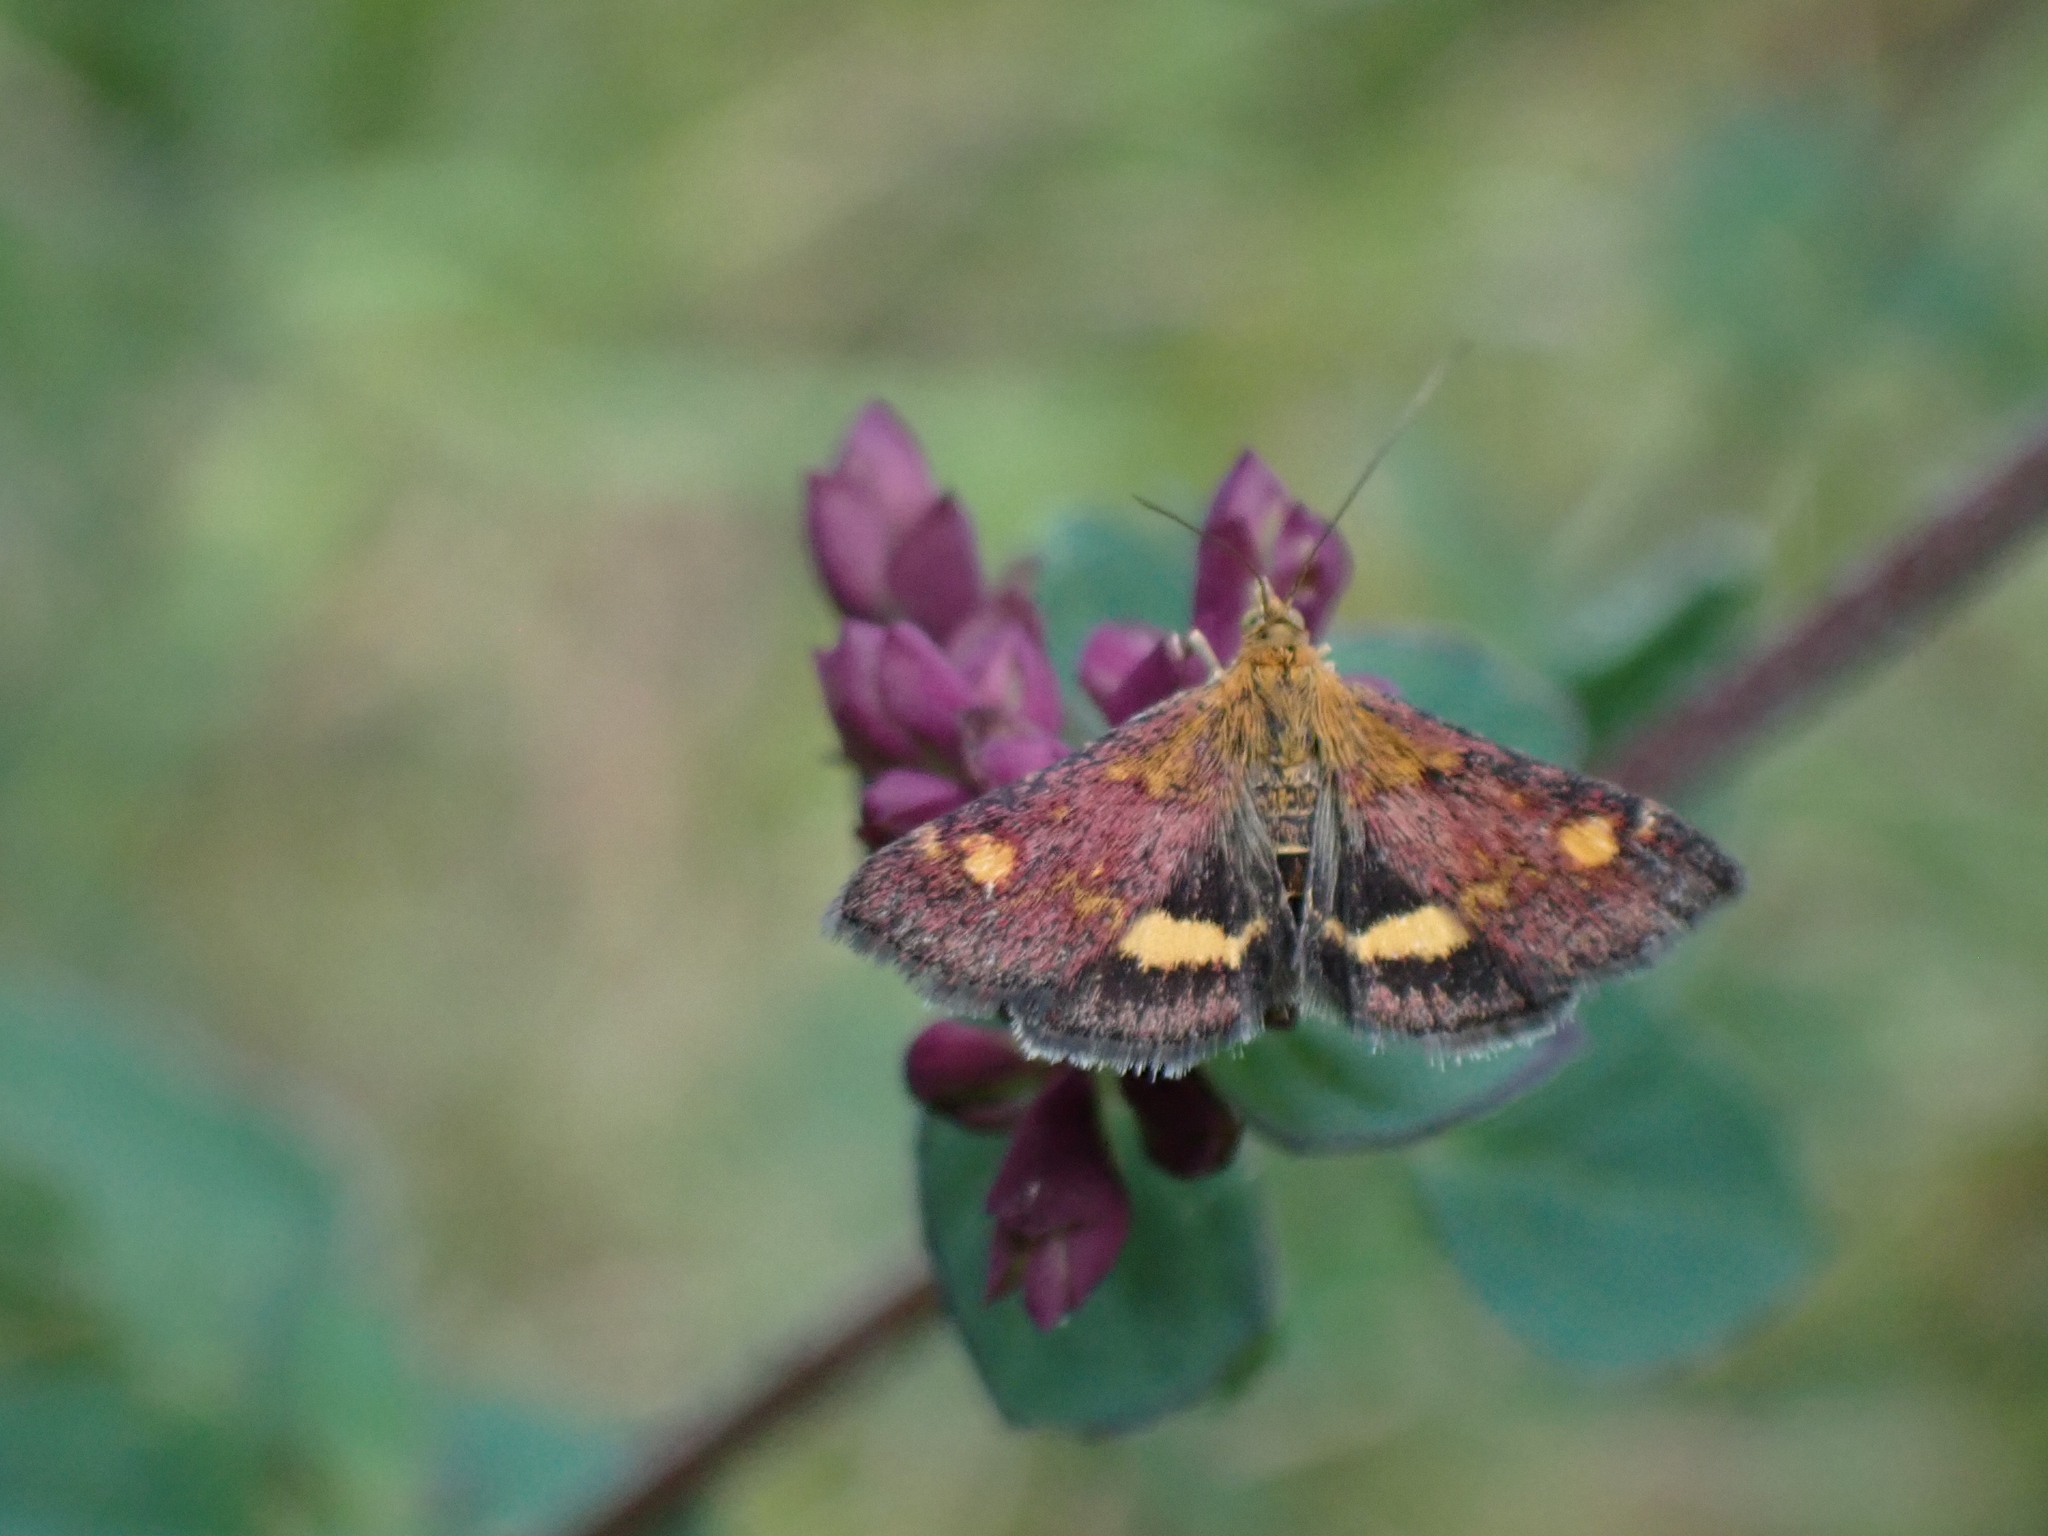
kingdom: Animalia
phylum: Arthropoda
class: Insecta
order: Lepidoptera
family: Crambidae
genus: Pyrausta
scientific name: Pyrausta aurata
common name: Small purple & gold
